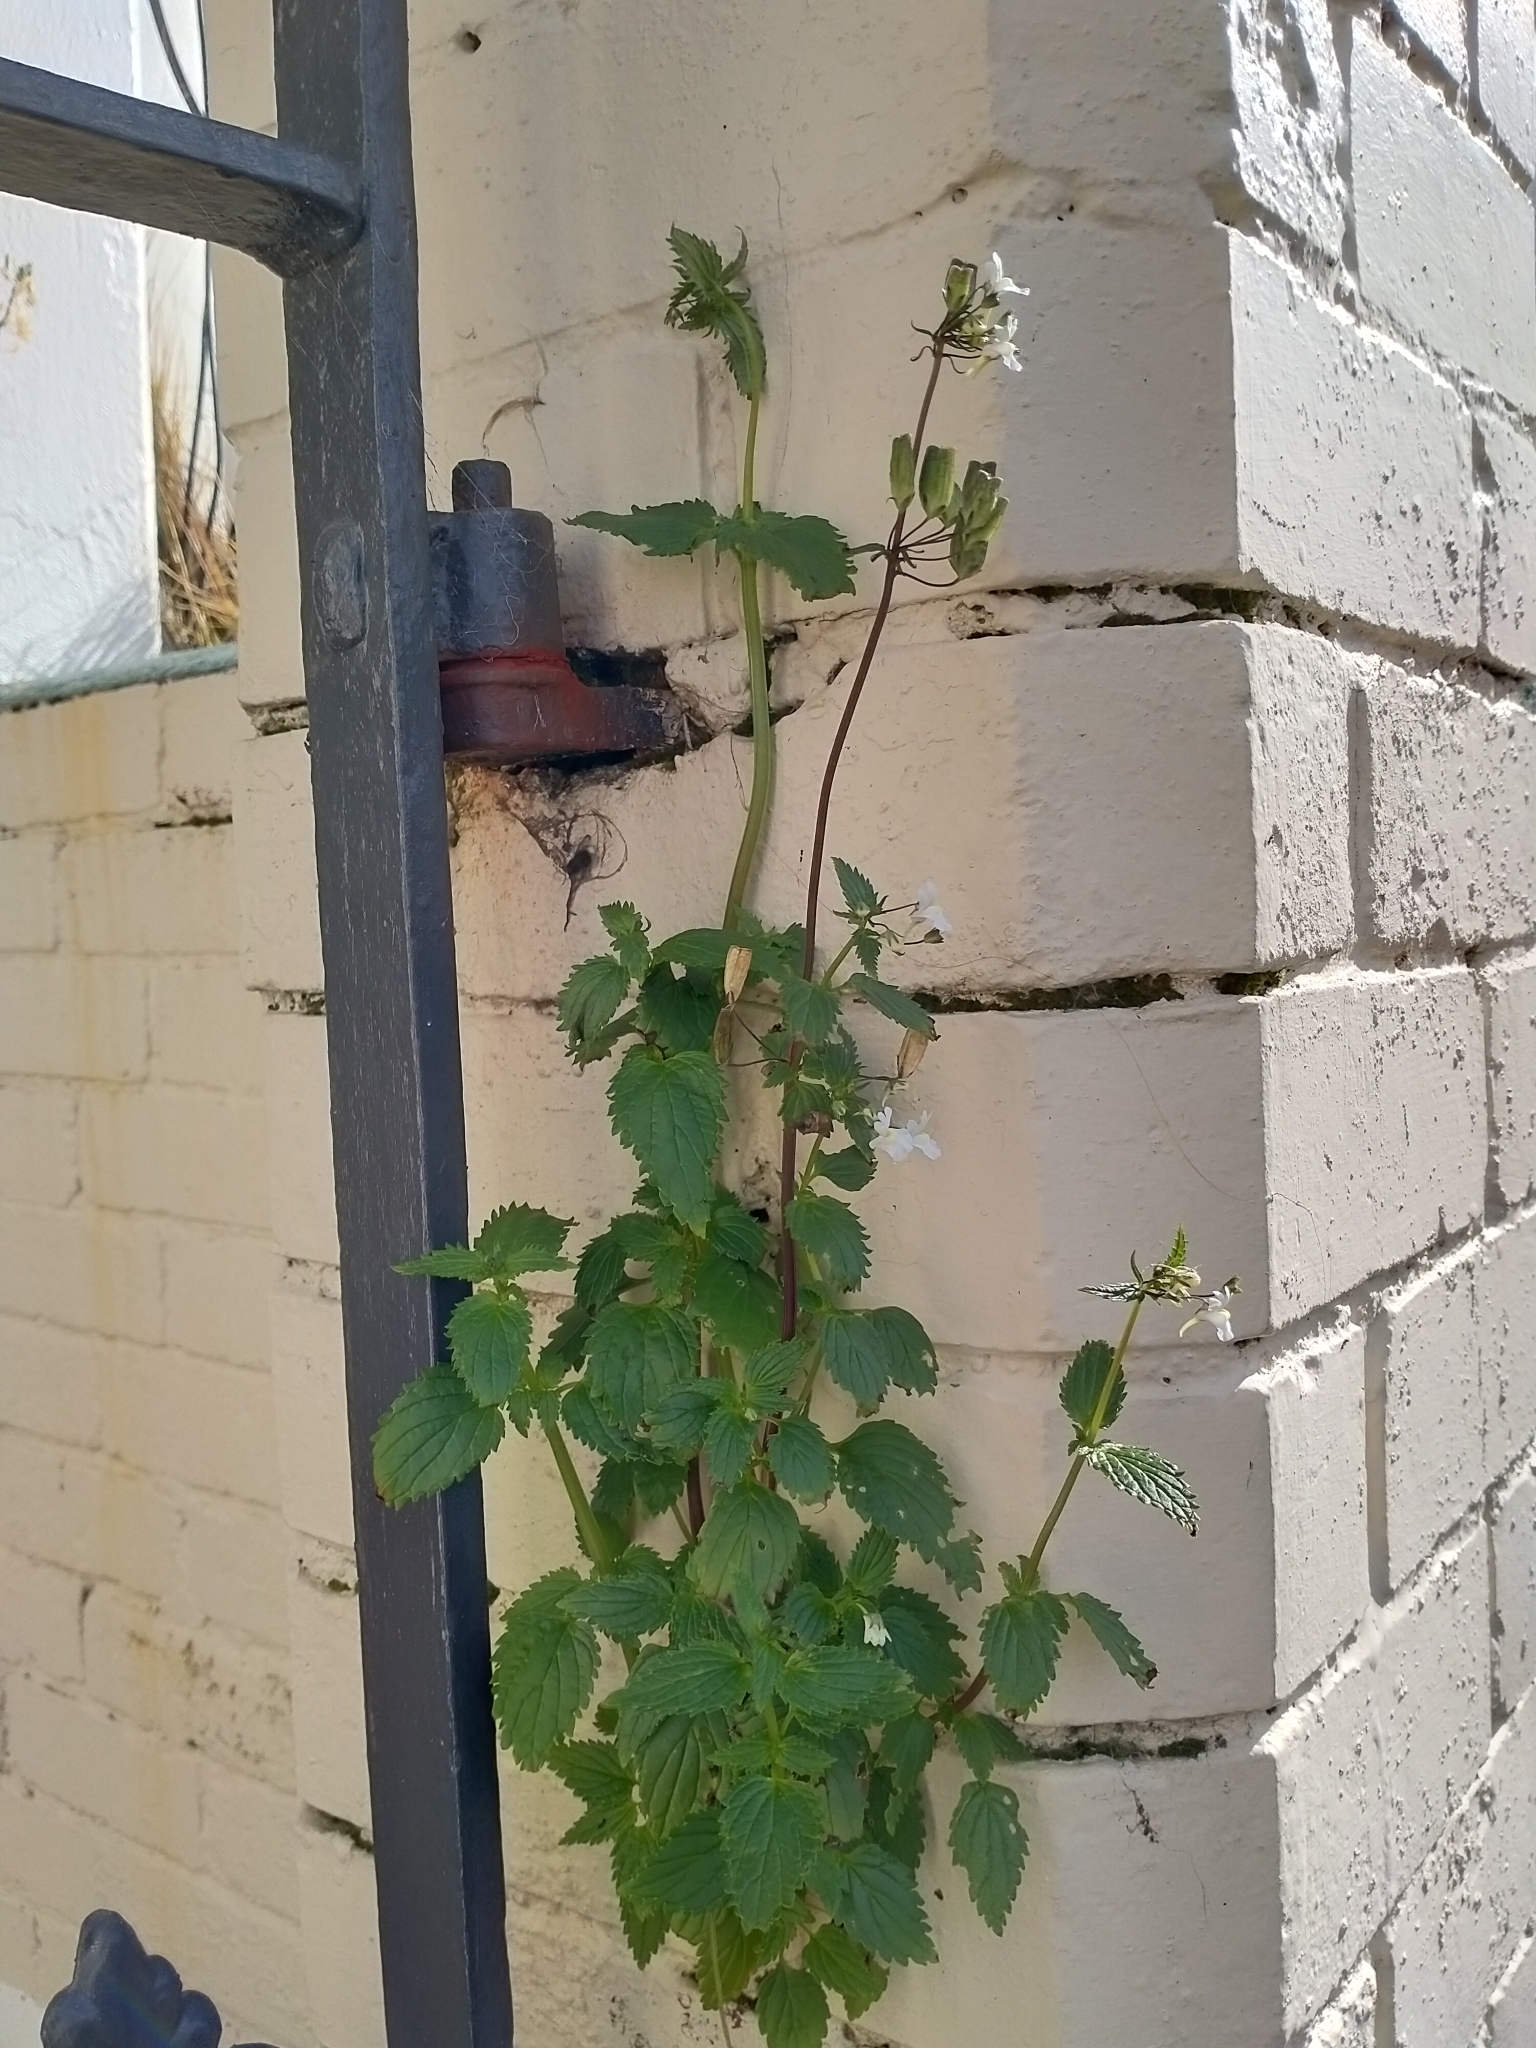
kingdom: Plantae
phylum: Tracheophyta
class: Magnoliopsida
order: Lamiales
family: Scrophulariaceae
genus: Nemesia
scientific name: Nemesia floribunda
